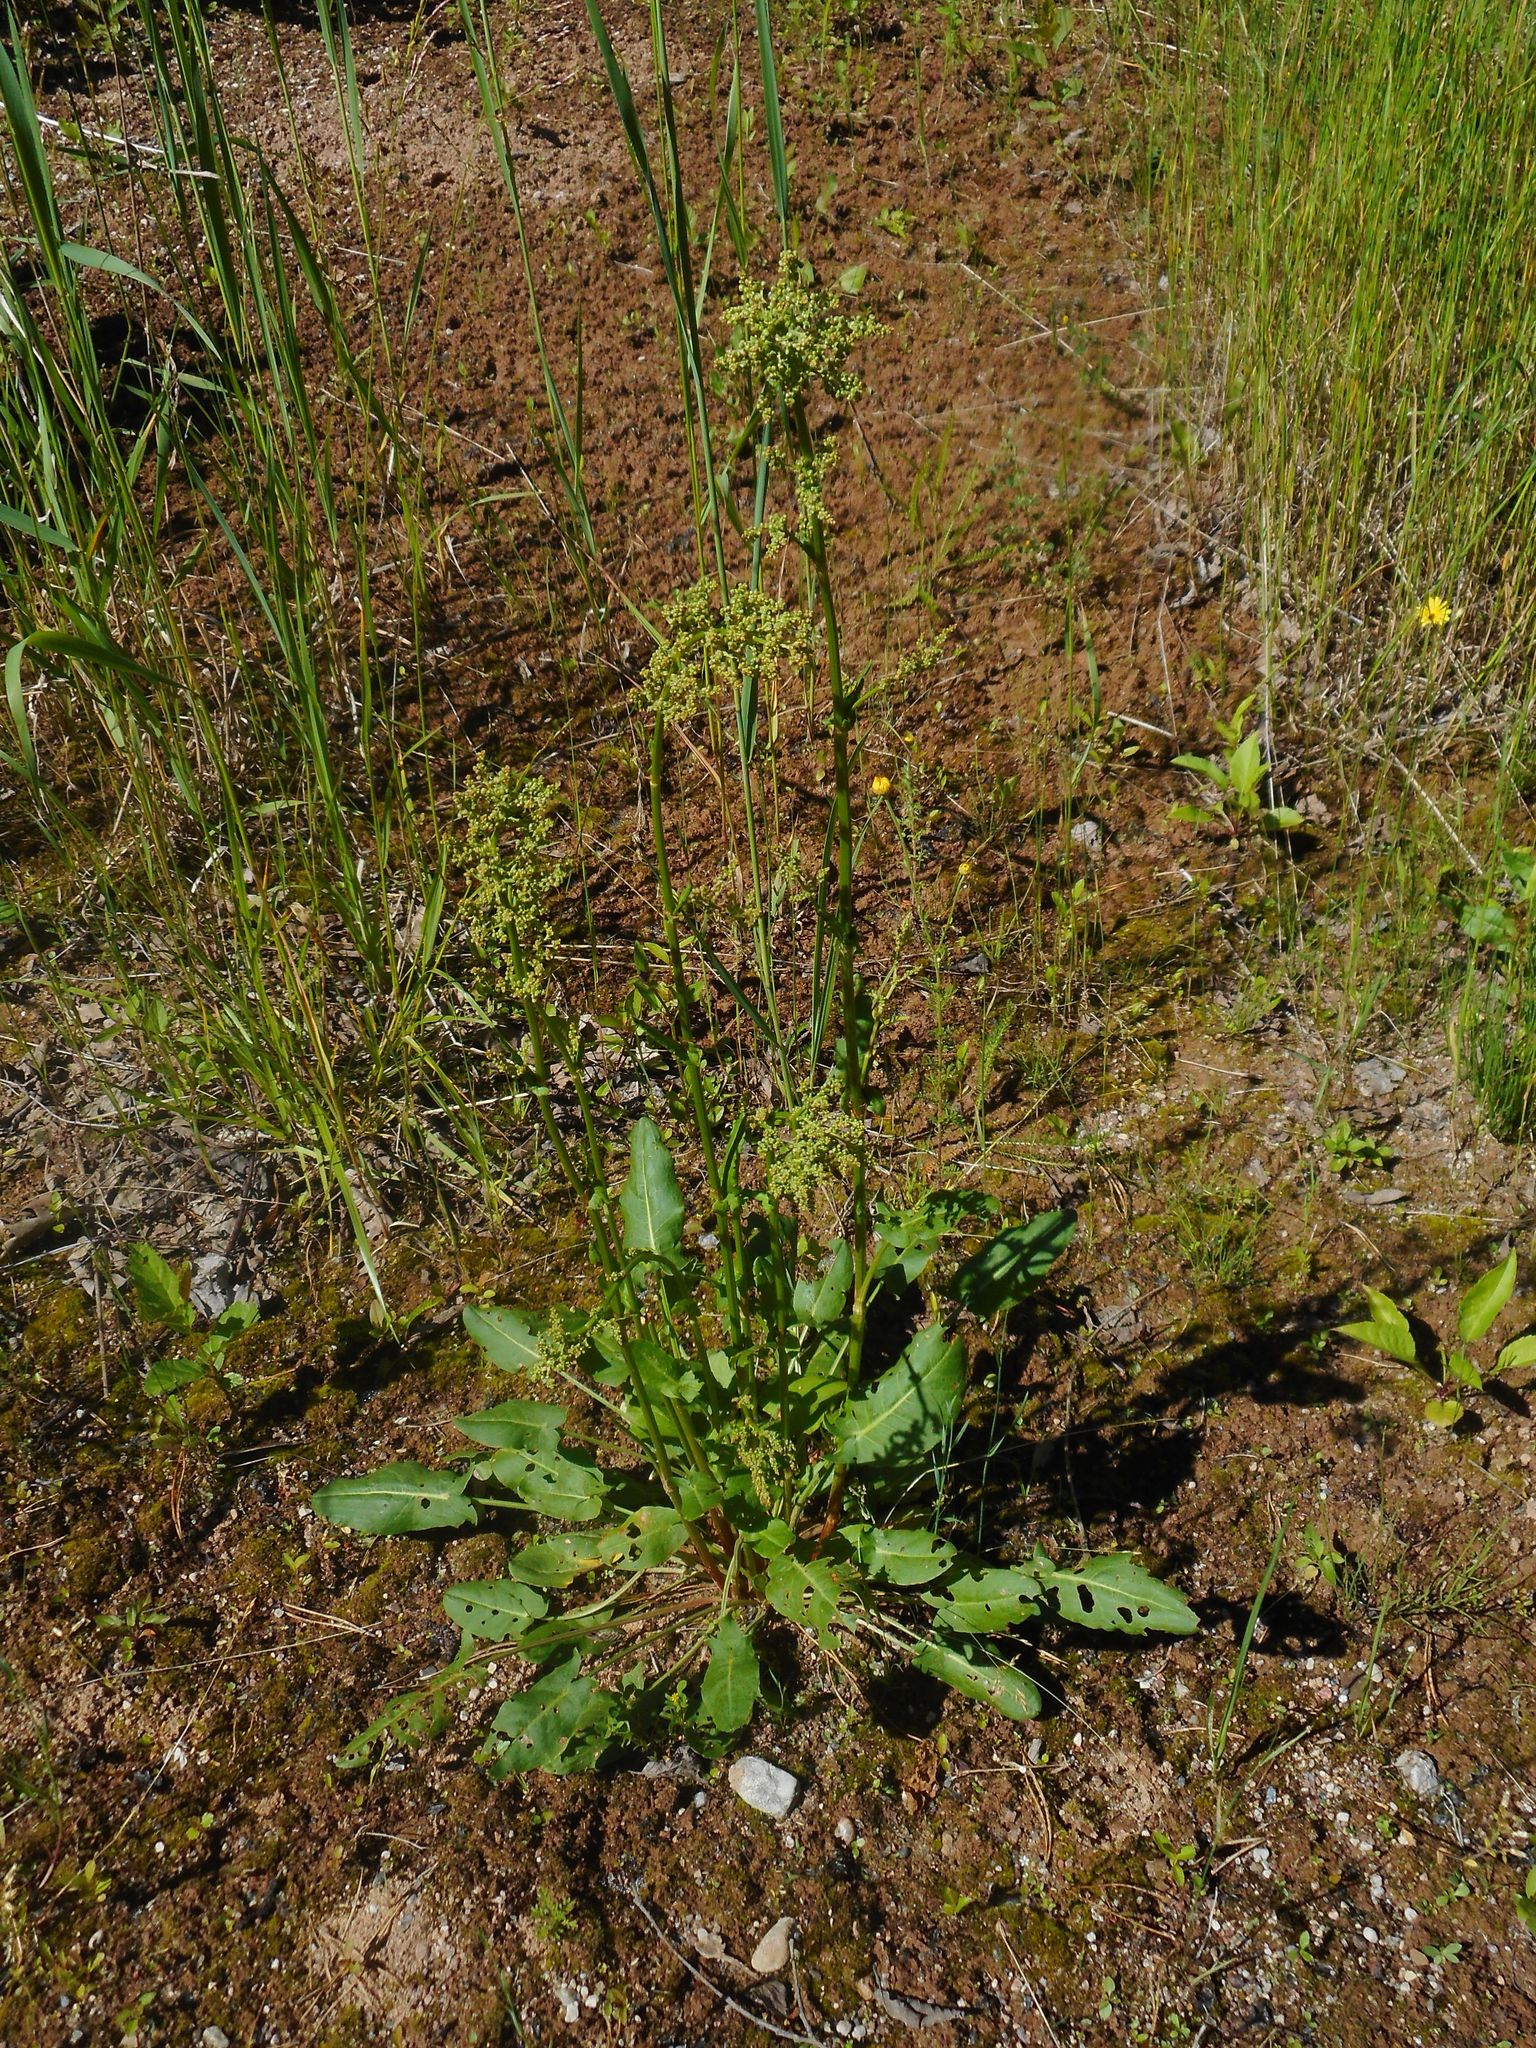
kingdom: Plantae
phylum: Tracheophyta
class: Magnoliopsida
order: Caryophyllales
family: Polygonaceae
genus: Rumex
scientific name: Rumex thyrsiflorus
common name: Garden sorrel
